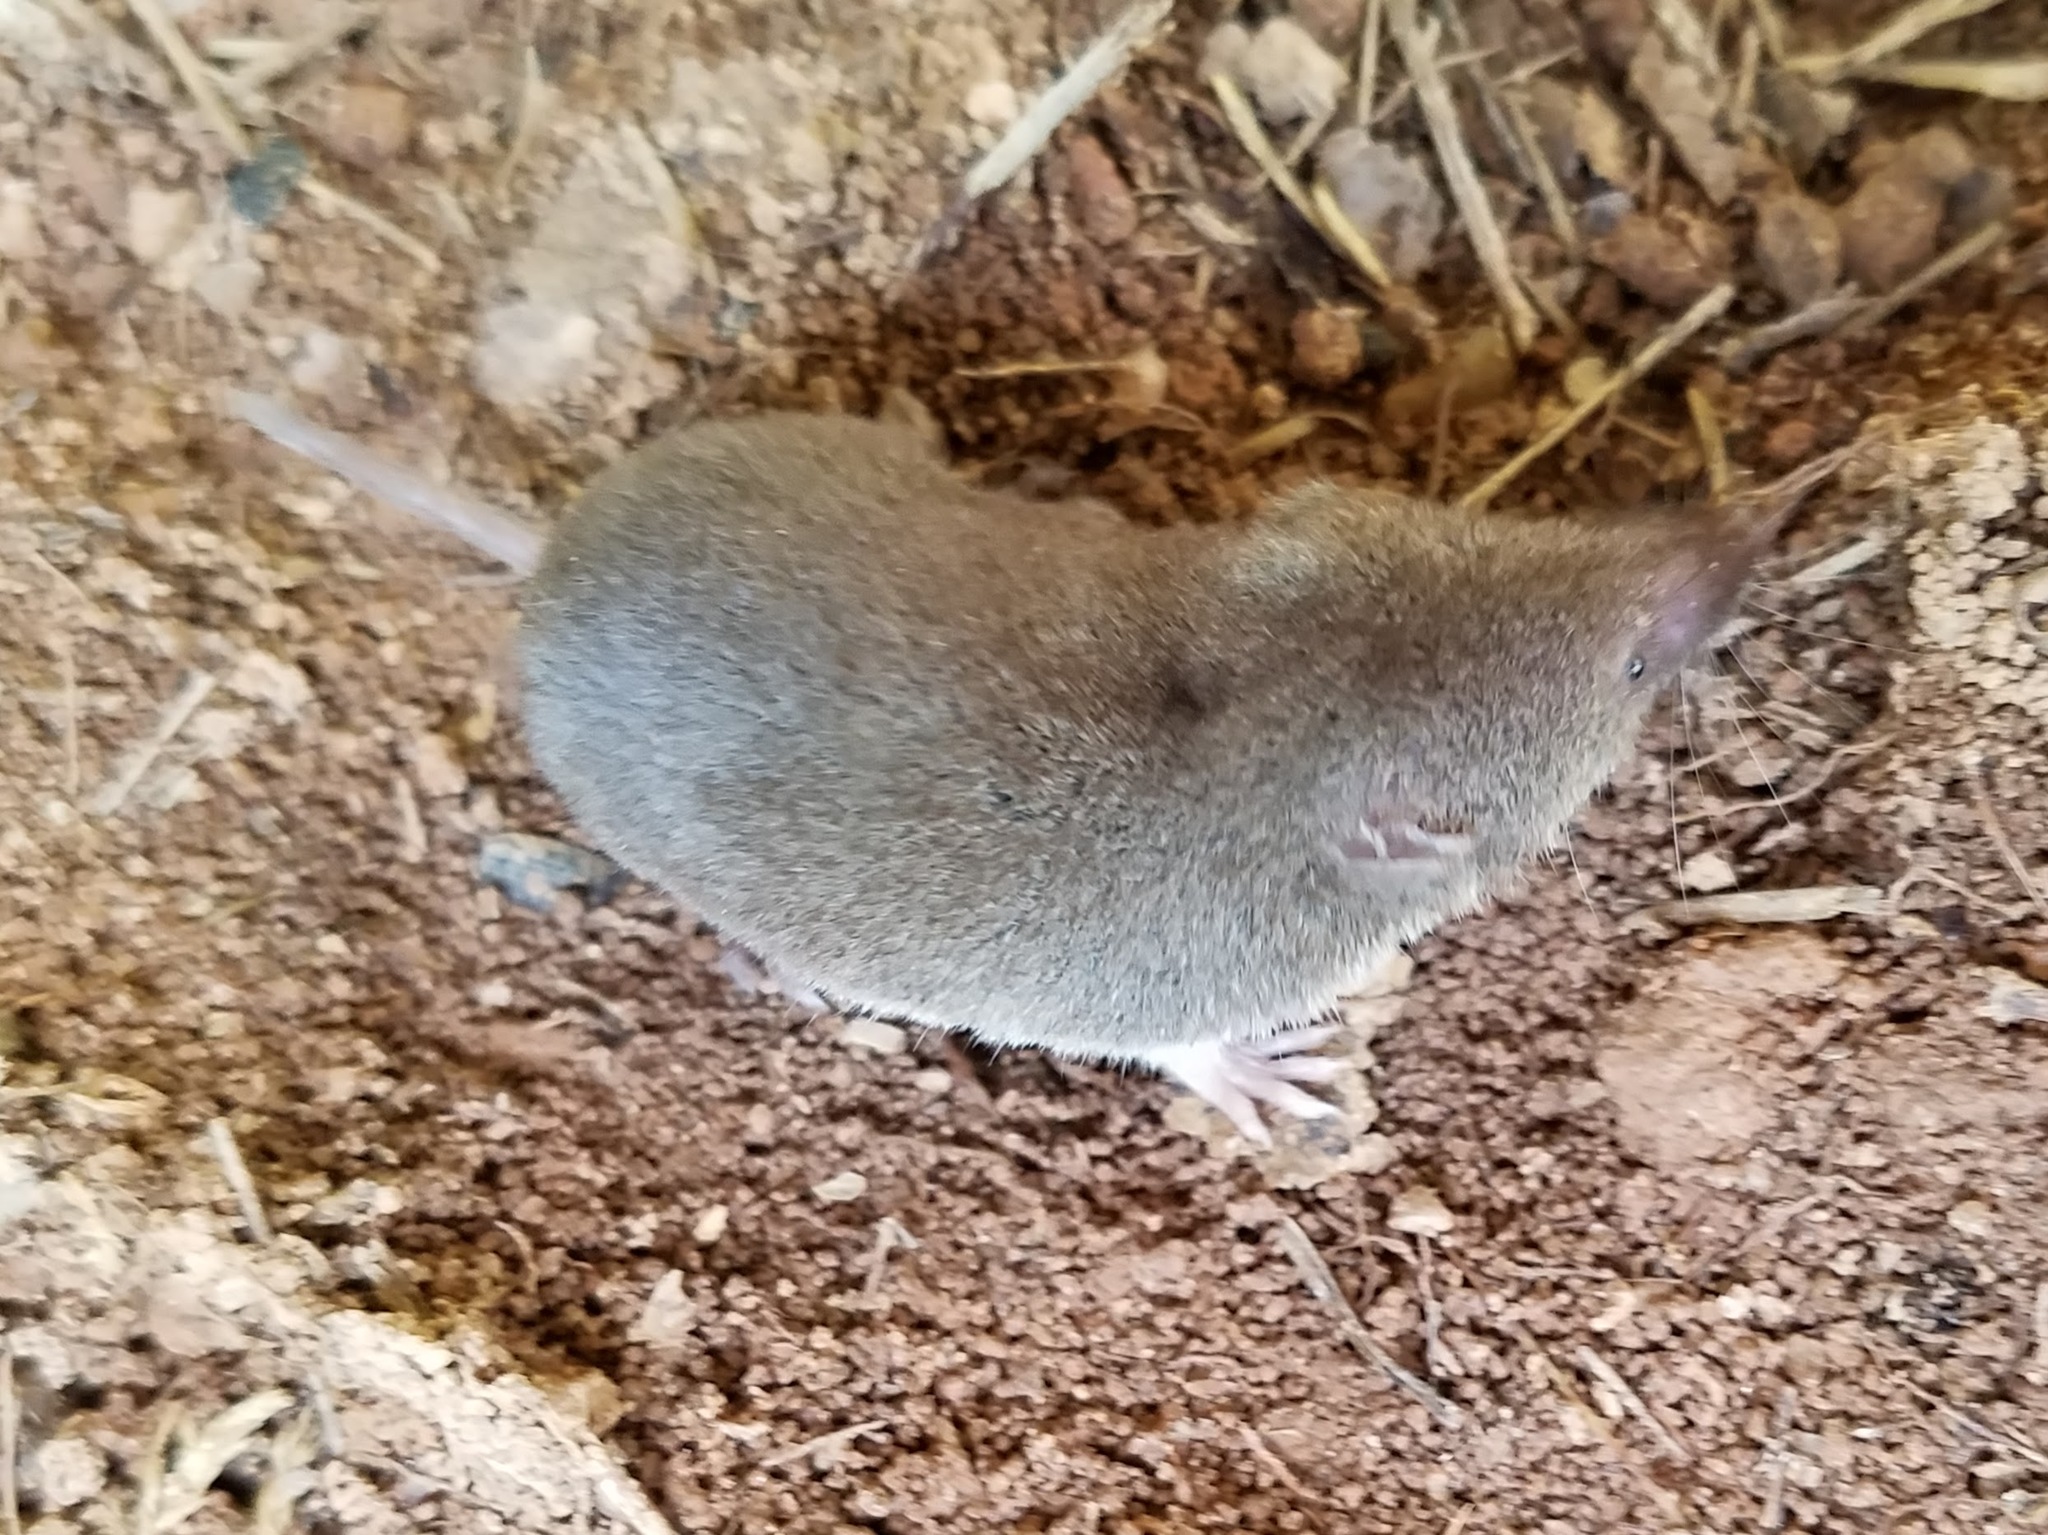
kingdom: Animalia
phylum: Chordata
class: Mammalia
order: Soricomorpha
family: Soricidae
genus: Blarina
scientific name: Blarina brevicauda
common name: Northern short-tailed shrew
